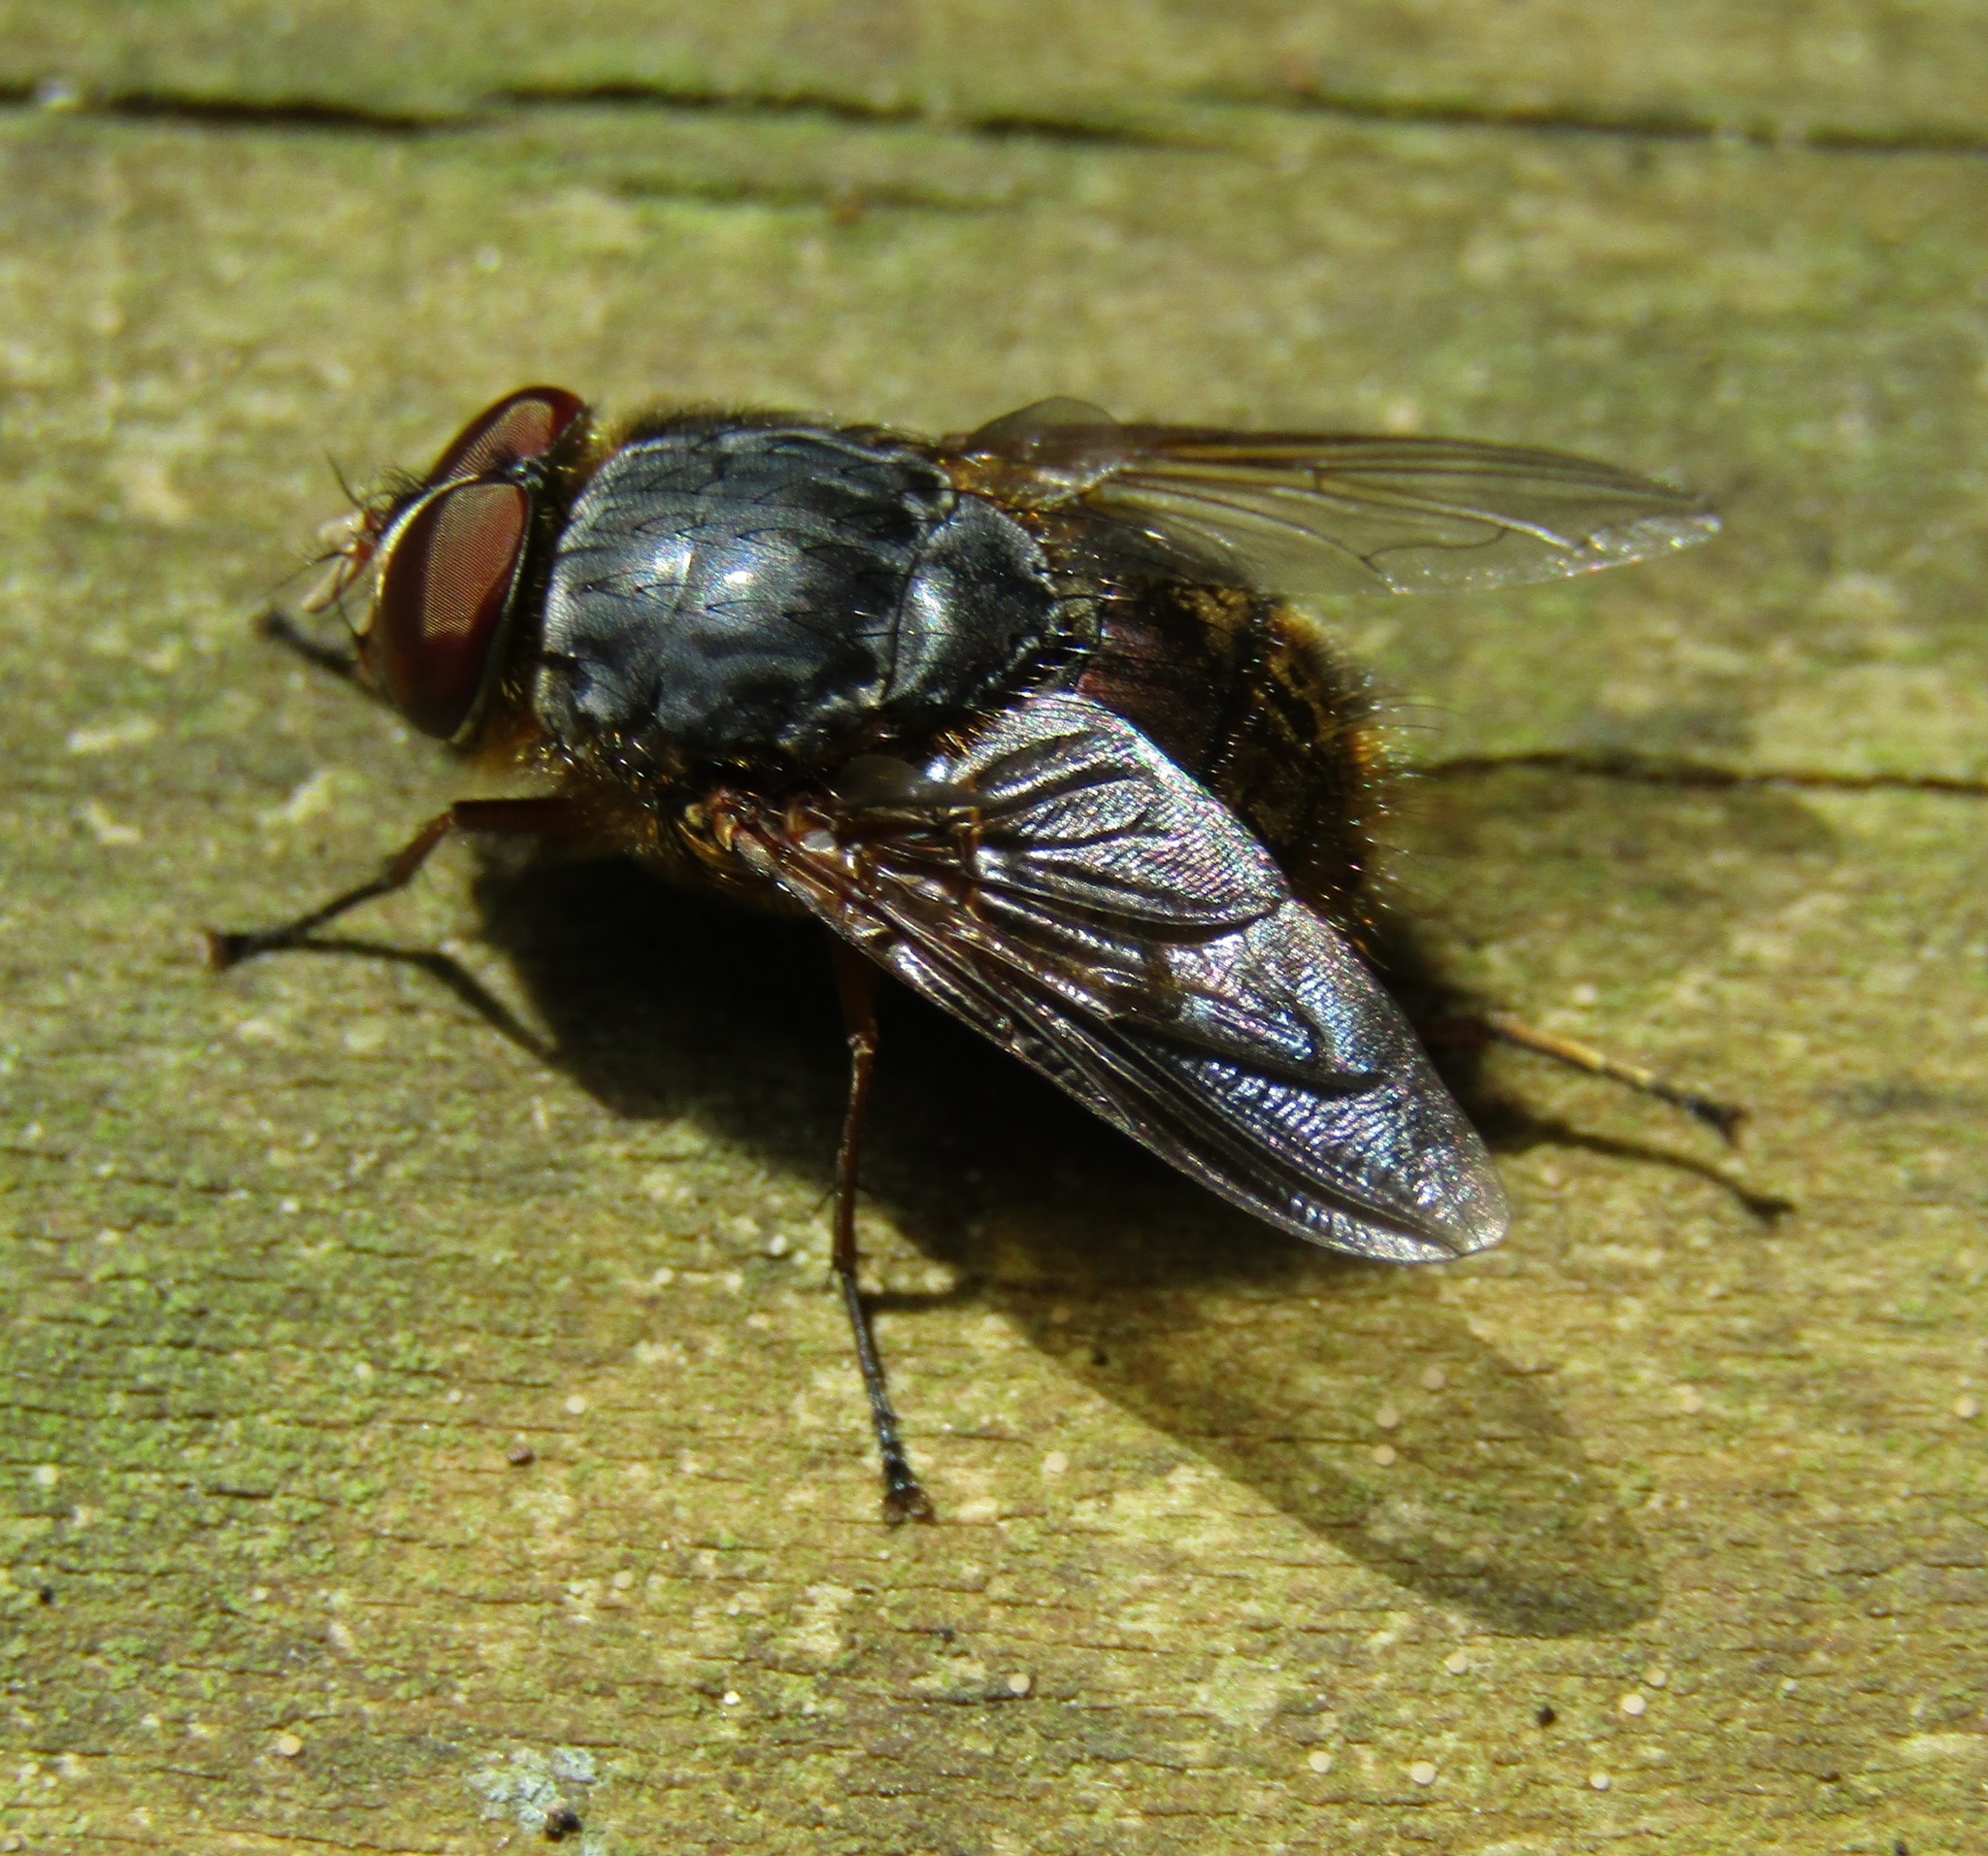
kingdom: Animalia
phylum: Arthropoda
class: Insecta
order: Diptera
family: Calliphoridae
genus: Calliphora
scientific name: Calliphora stygia
